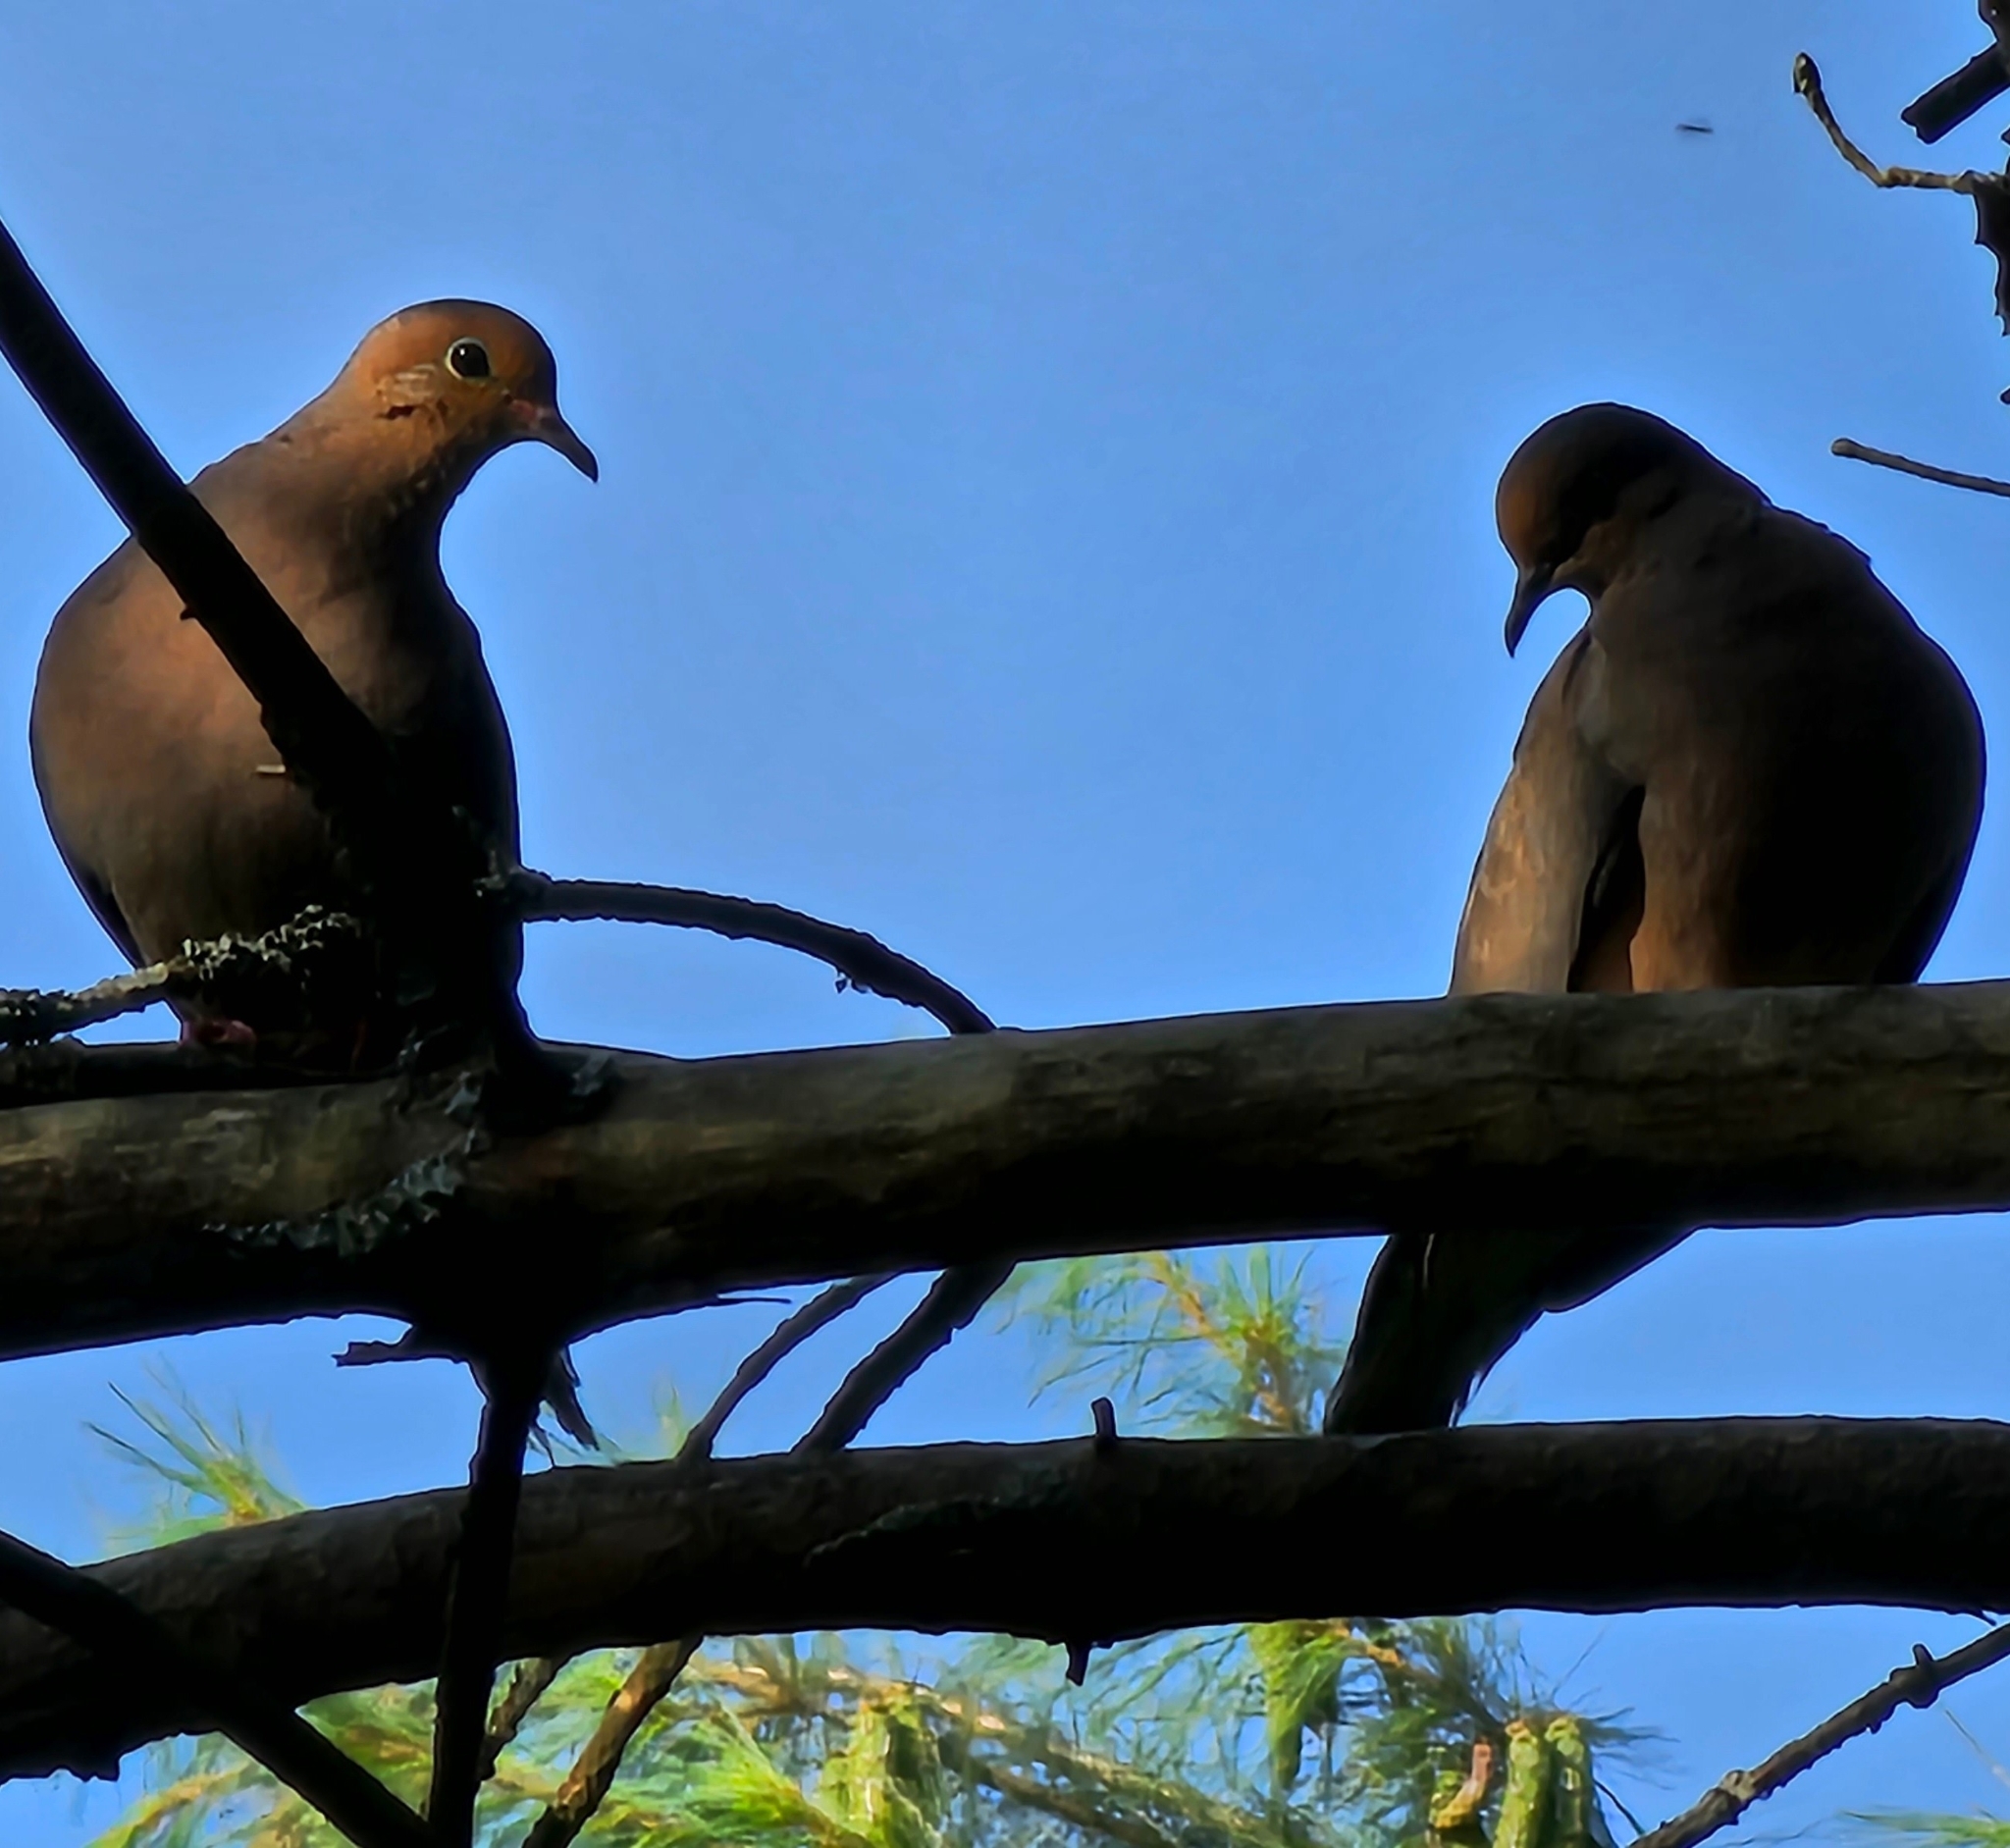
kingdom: Animalia
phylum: Chordata
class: Aves
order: Columbiformes
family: Columbidae
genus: Zenaida
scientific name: Zenaida macroura
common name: Mourning dove
